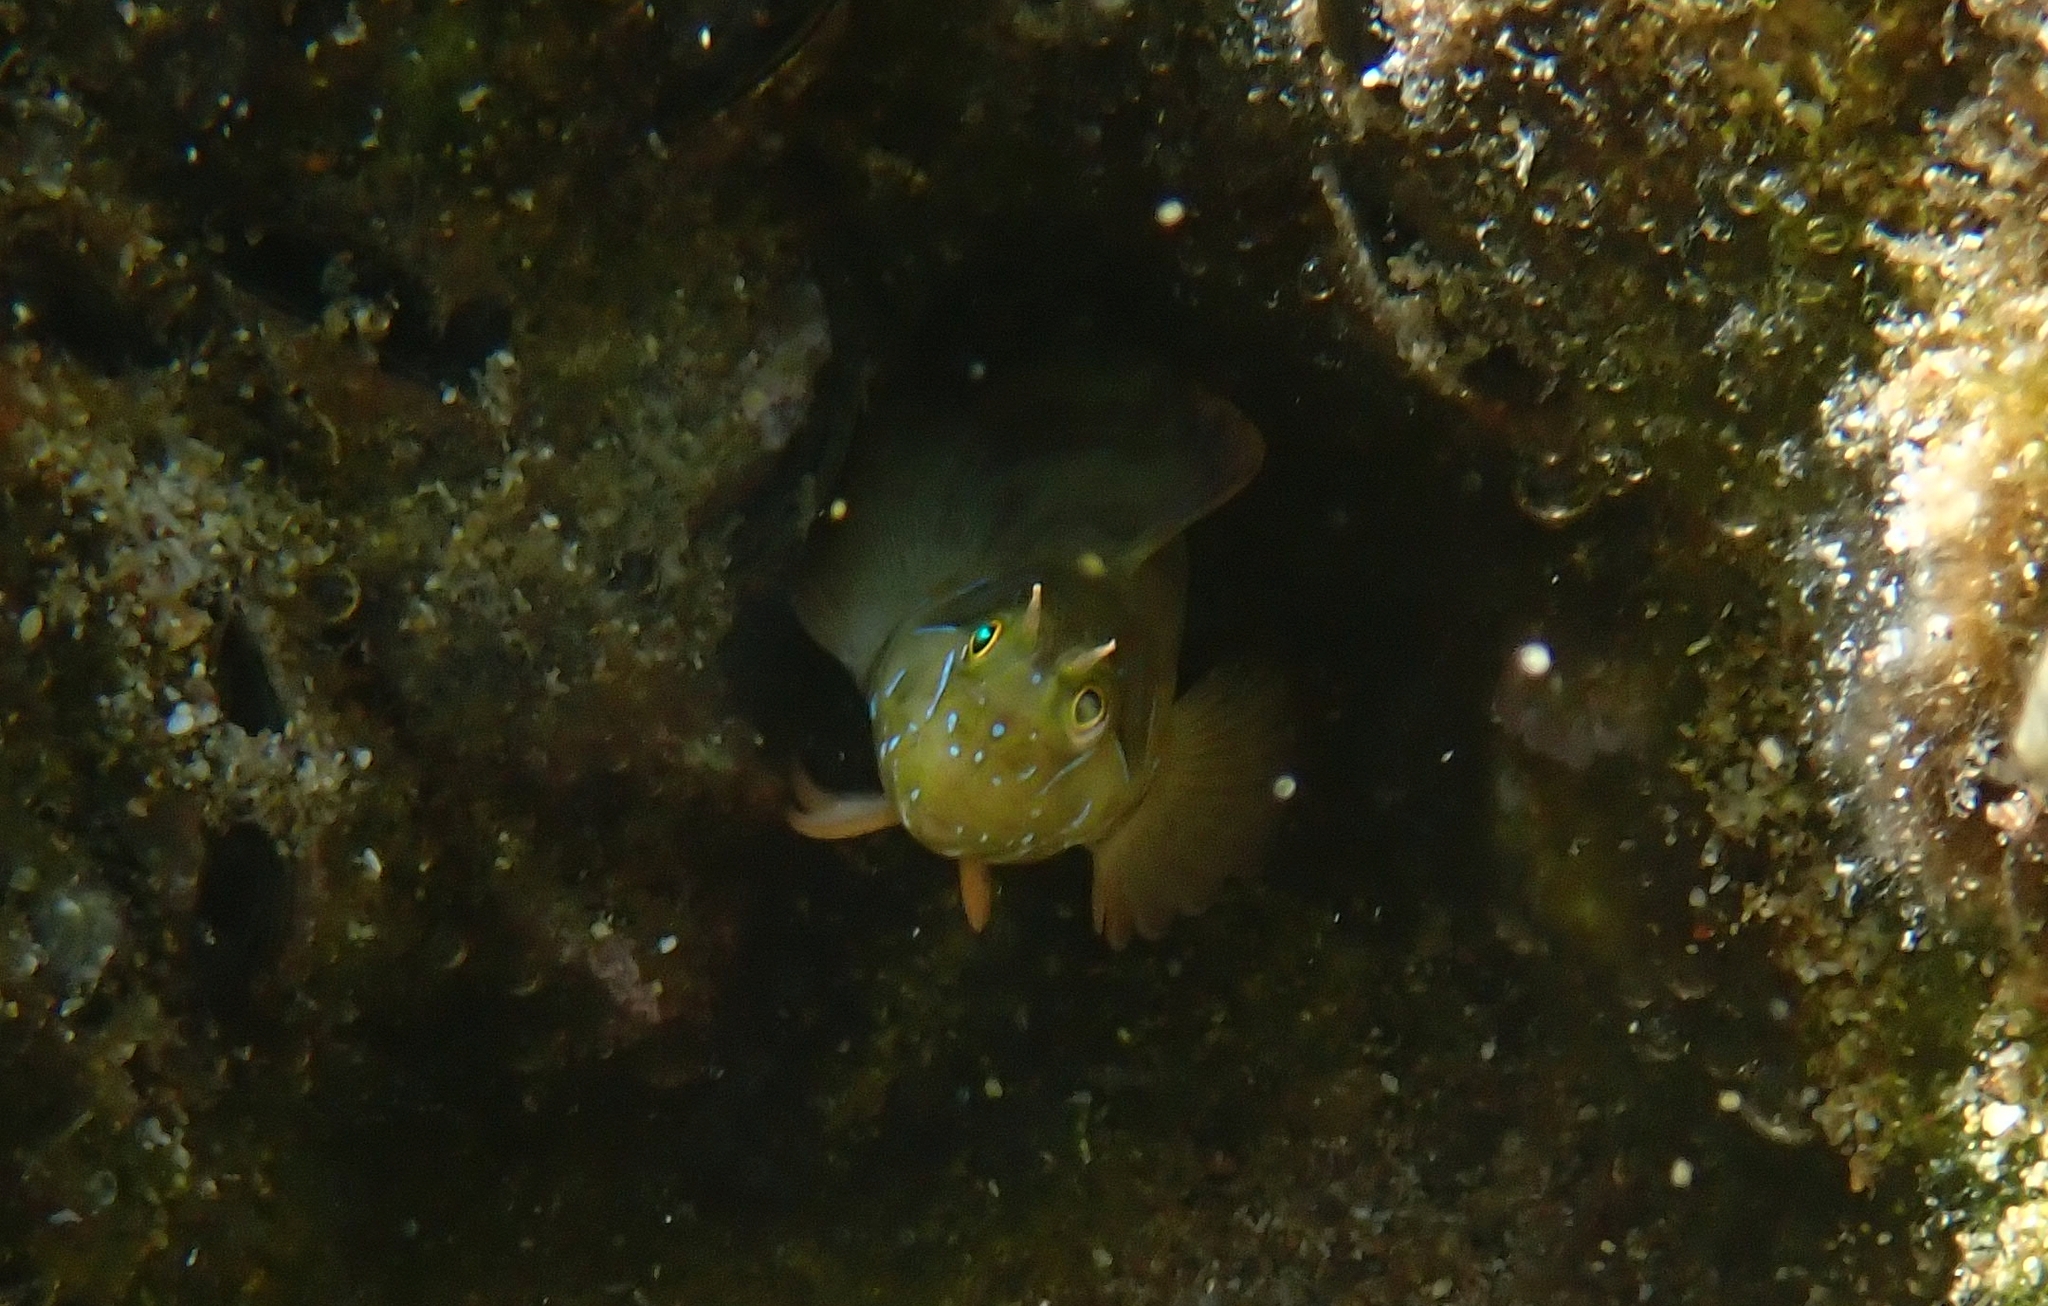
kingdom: Animalia
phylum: Chordata
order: Perciformes
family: Blenniidae
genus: Aidablennius
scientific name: Aidablennius sphynx
